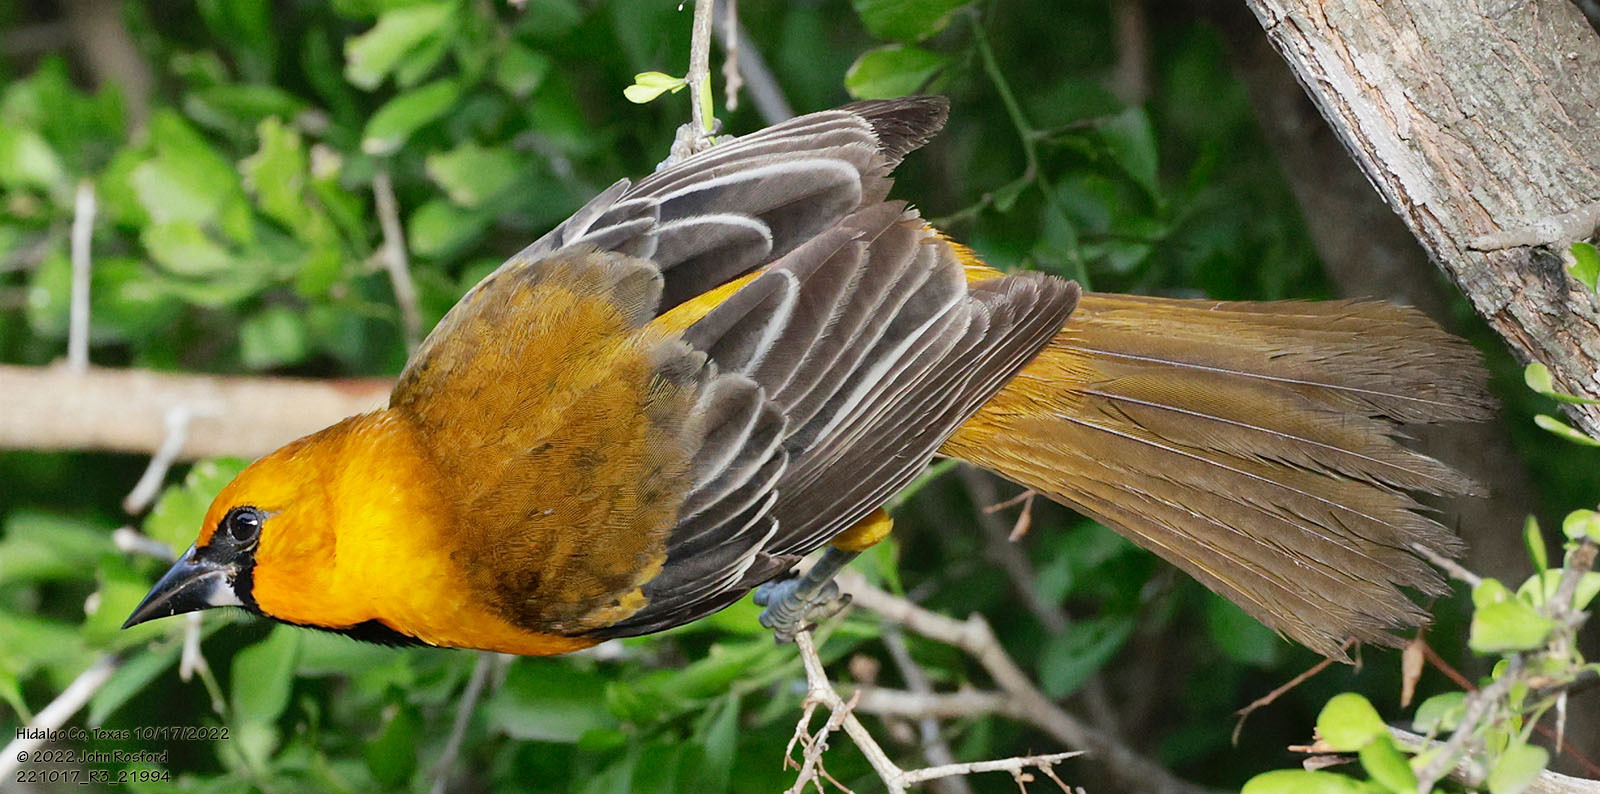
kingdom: Animalia
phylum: Chordata
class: Aves
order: Passeriformes
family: Icteridae
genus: Icterus
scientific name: Icterus gularis
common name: Altamira oriole
